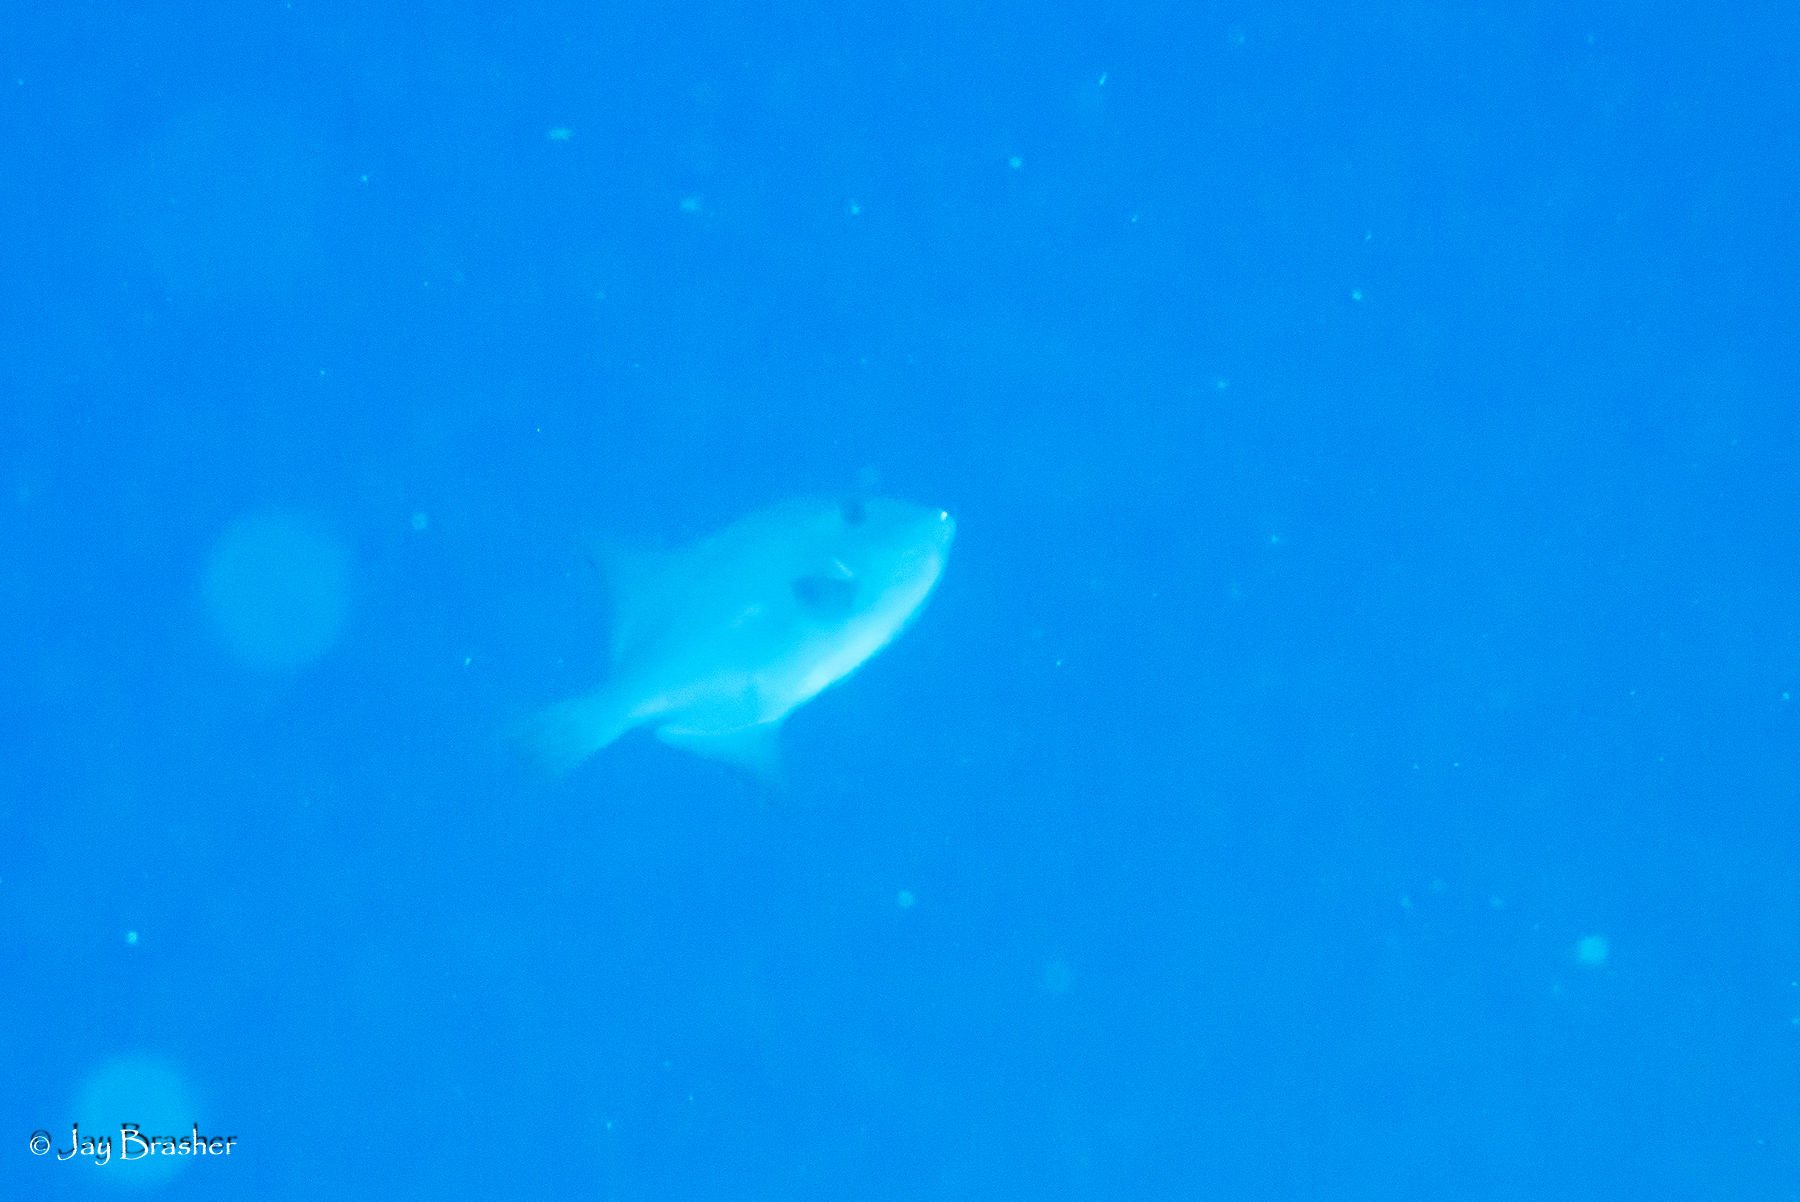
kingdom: Animalia
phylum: Chordata
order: Tetraodontiformes
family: Balistidae
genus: Canthidermis
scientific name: Canthidermis sufflamen
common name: Ocean triggerfish
